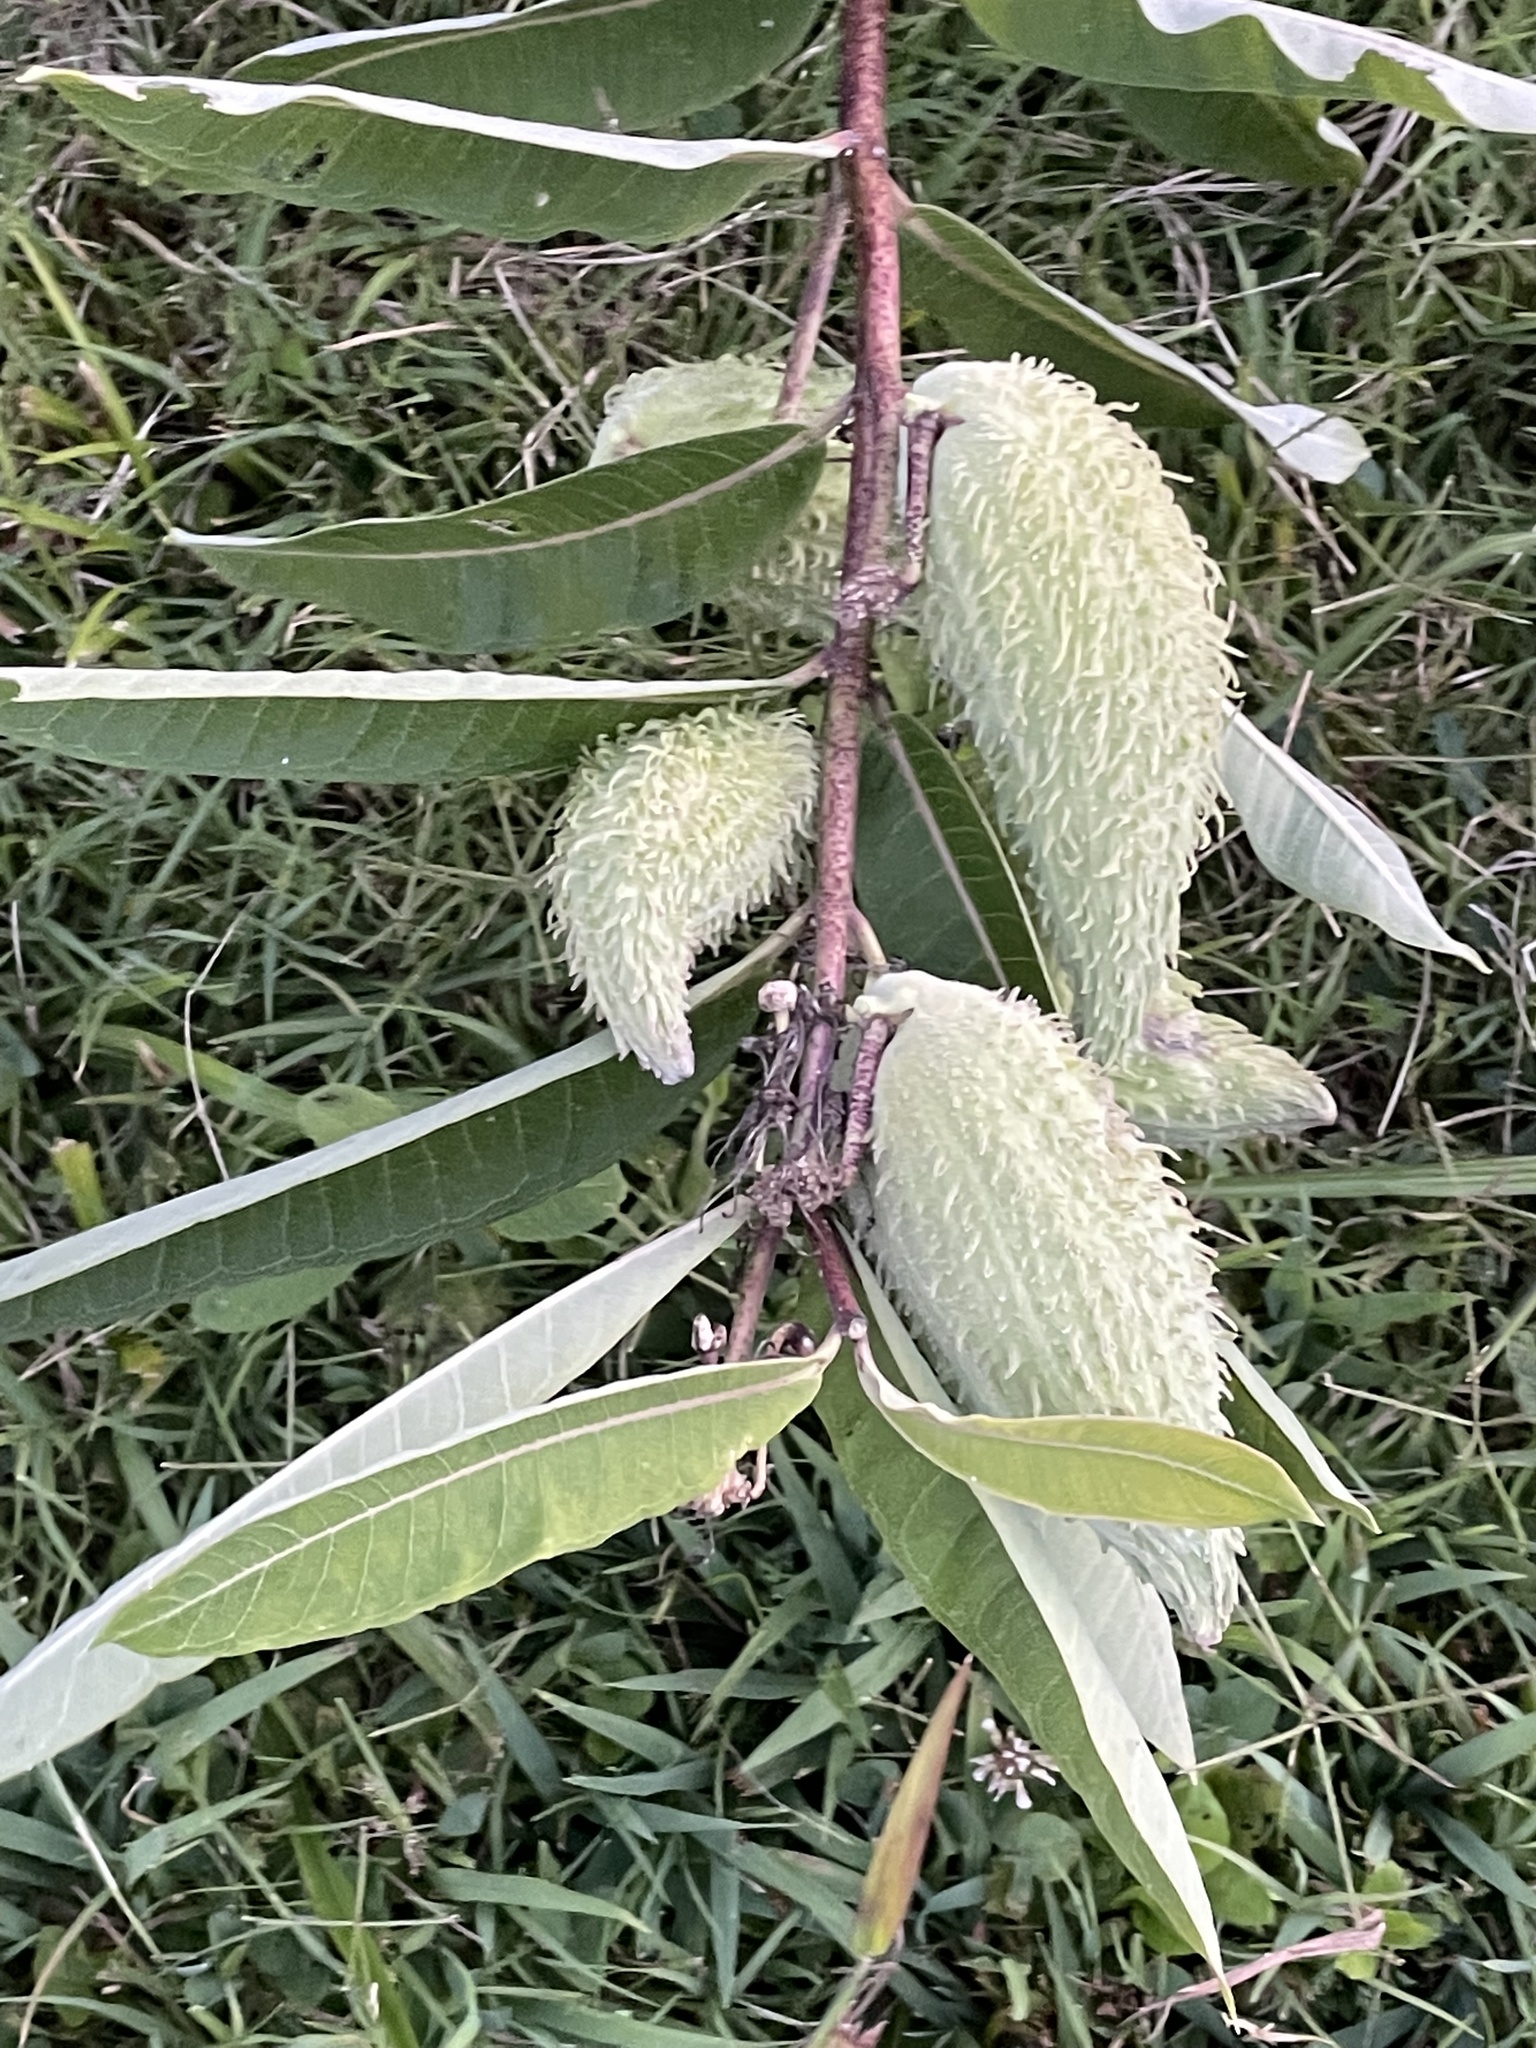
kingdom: Plantae
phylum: Tracheophyta
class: Magnoliopsida
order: Gentianales
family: Apocynaceae
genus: Asclepias
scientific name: Asclepias syriaca
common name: Common milkweed
